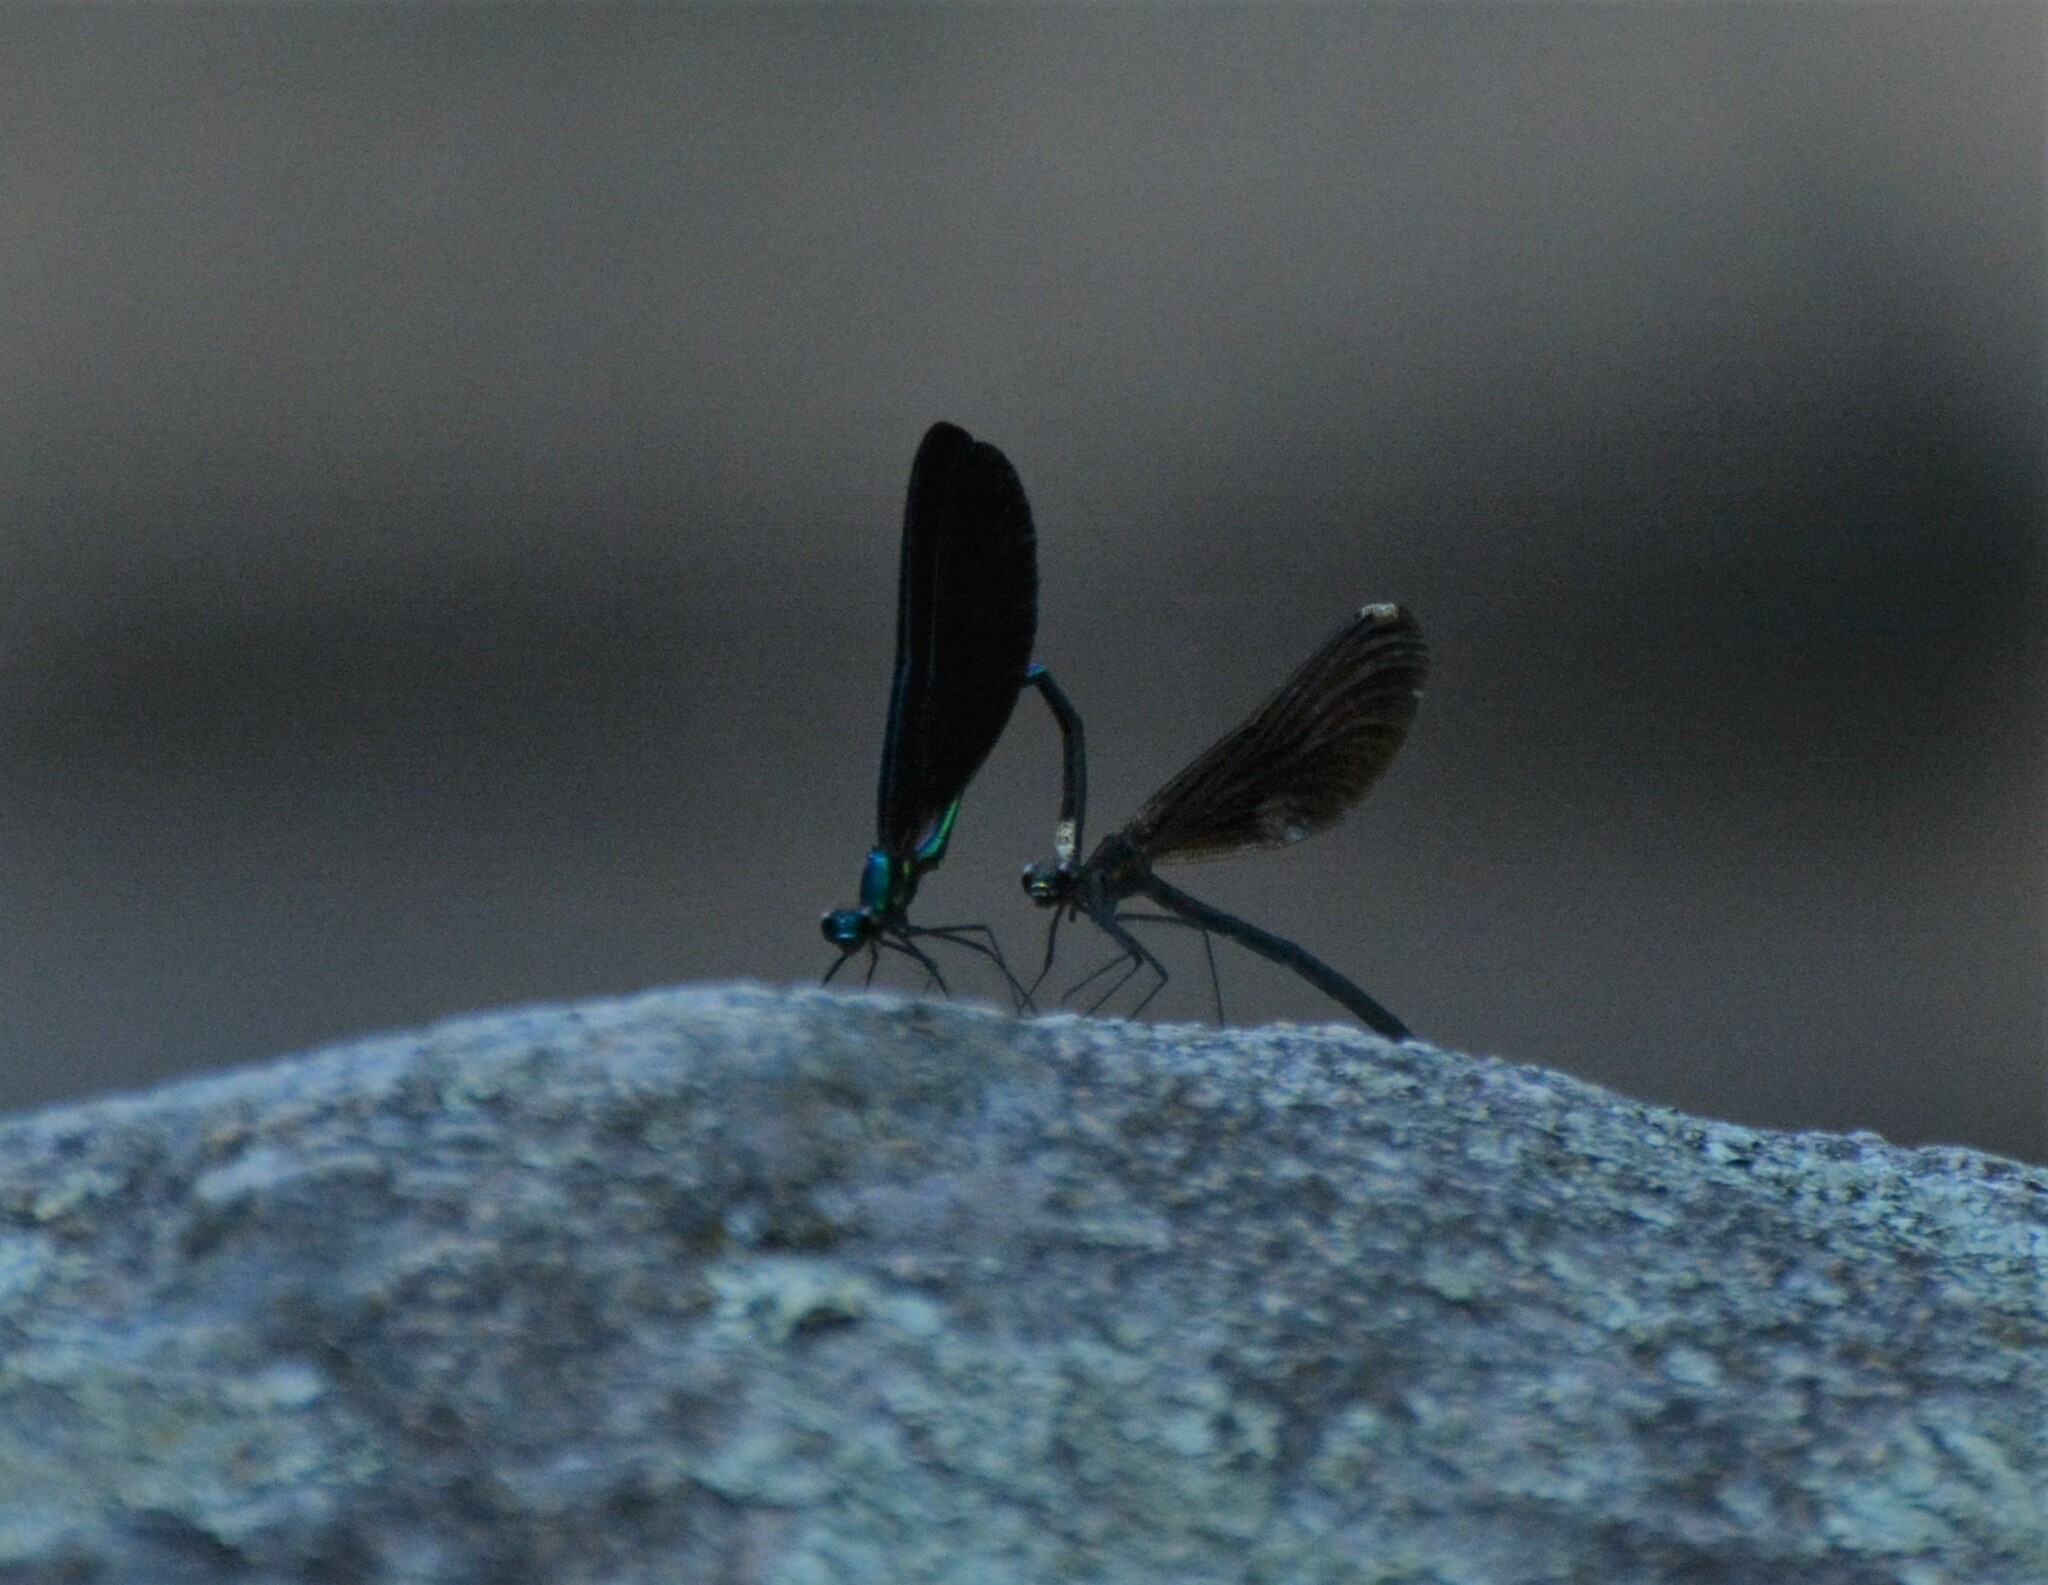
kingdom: Animalia
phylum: Arthropoda
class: Insecta
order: Odonata
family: Calopterygidae
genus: Calopteryx
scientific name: Calopteryx maculata
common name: Ebony jewelwing
